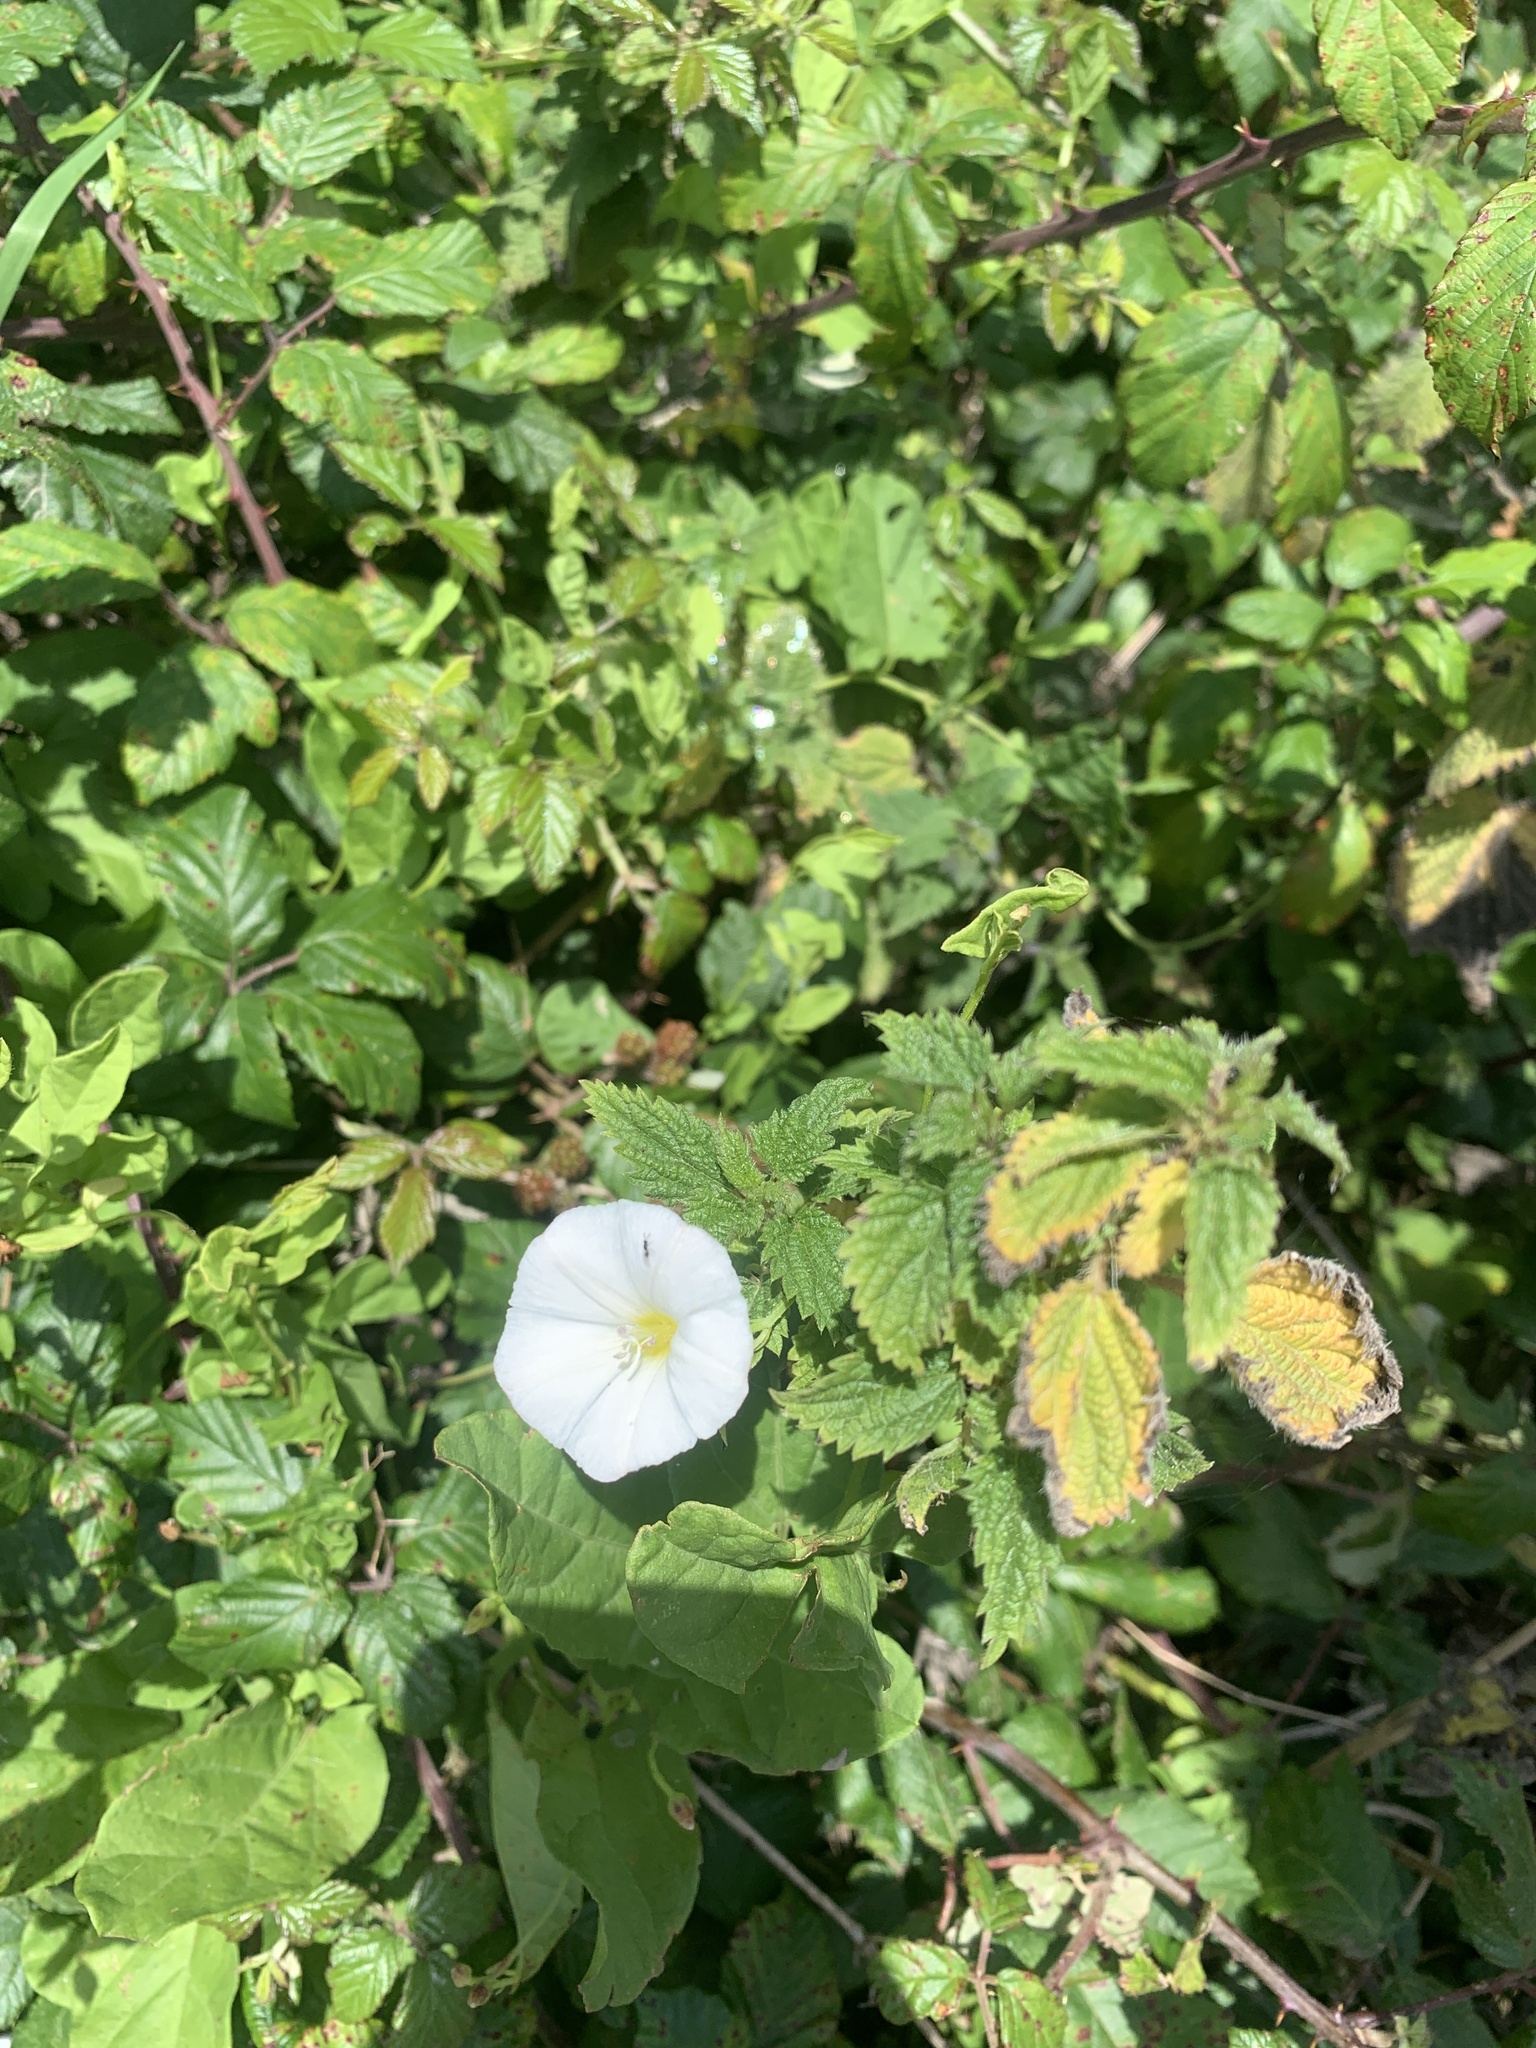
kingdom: Plantae
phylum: Tracheophyta
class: Magnoliopsida
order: Solanales
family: Convolvulaceae
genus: Convolvulus
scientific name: Convolvulus arvensis
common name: Field bindweed
